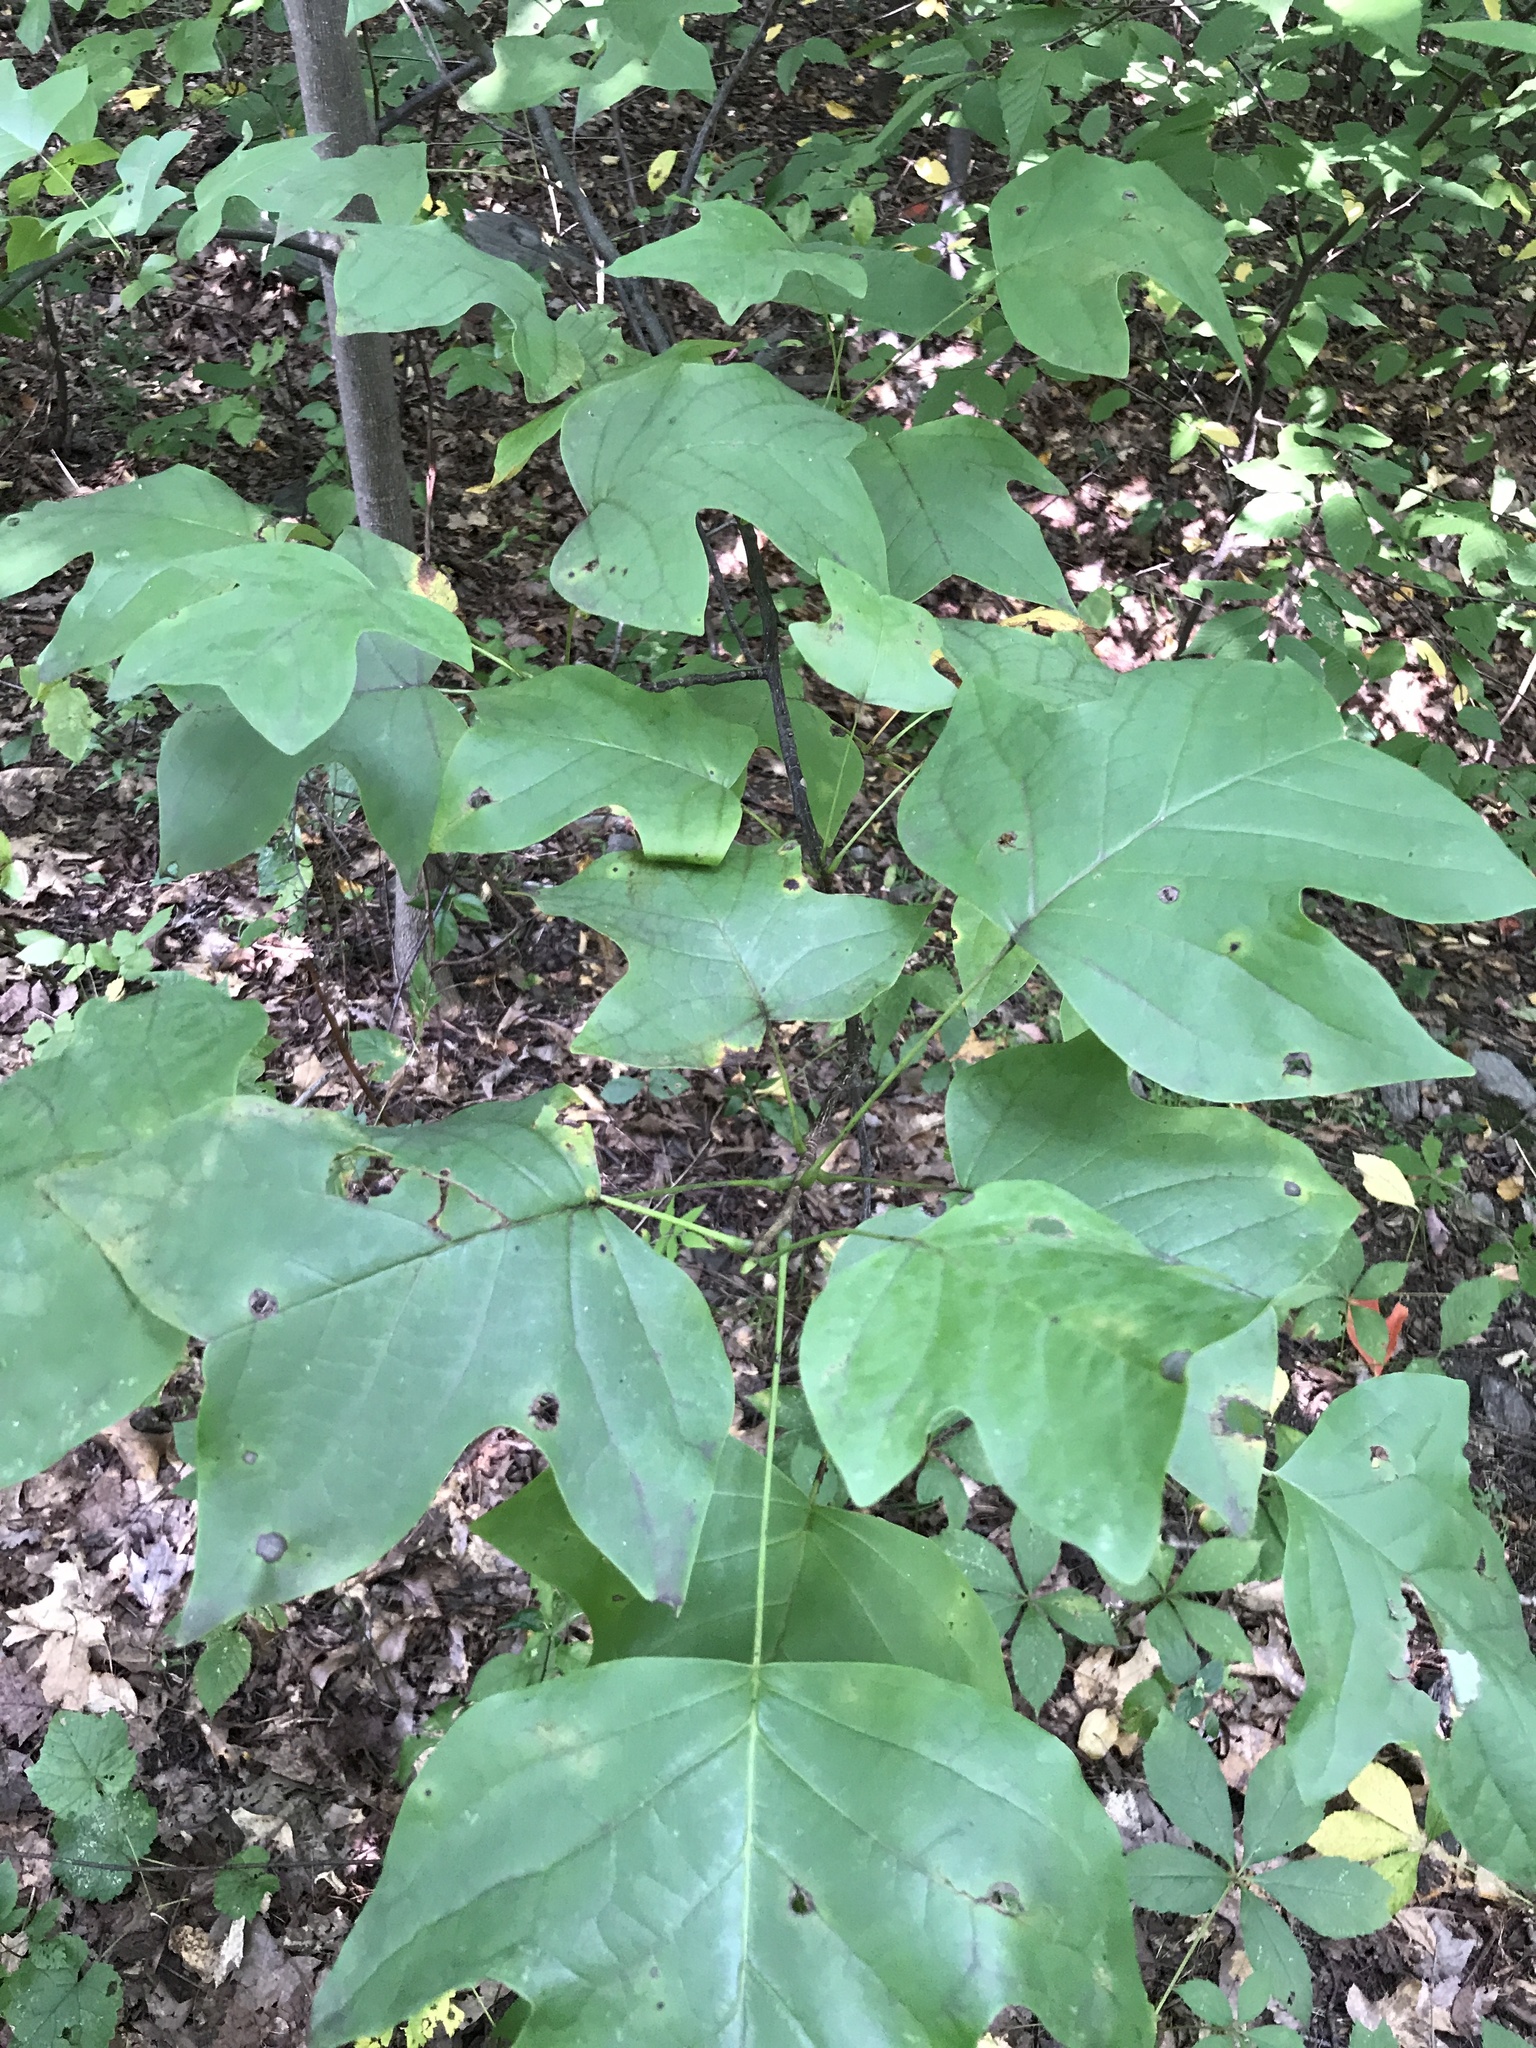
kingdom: Plantae
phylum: Tracheophyta
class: Magnoliopsida
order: Magnoliales
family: Magnoliaceae
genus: Liriodendron
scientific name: Liriodendron tulipifera
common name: Tulip tree
